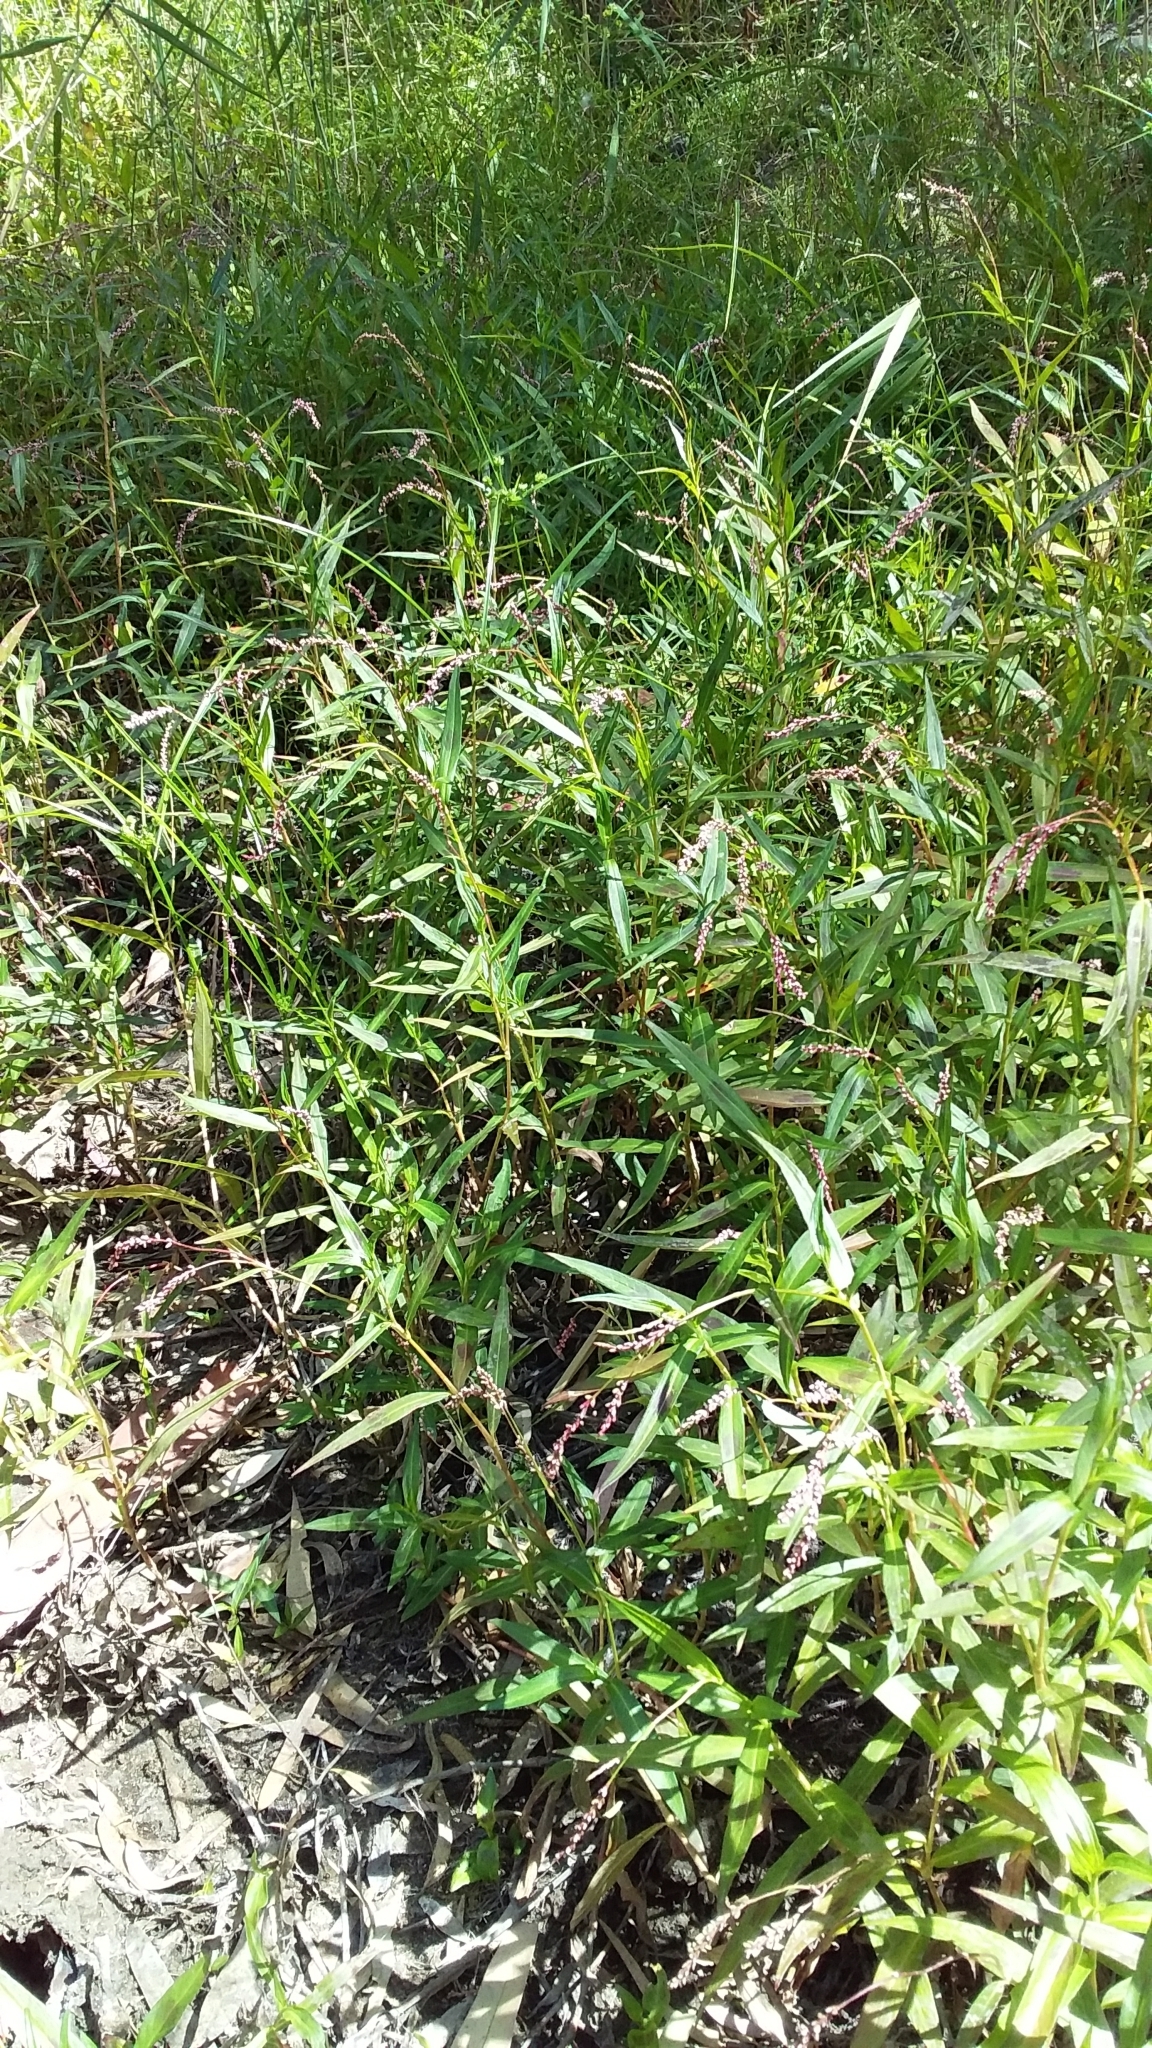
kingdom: Plantae
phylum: Tracheophyta
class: Magnoliopsida
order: Caryophyllales
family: Polygonaceae
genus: Persicaria
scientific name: Persicaria decipiens
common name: Willow-weed
